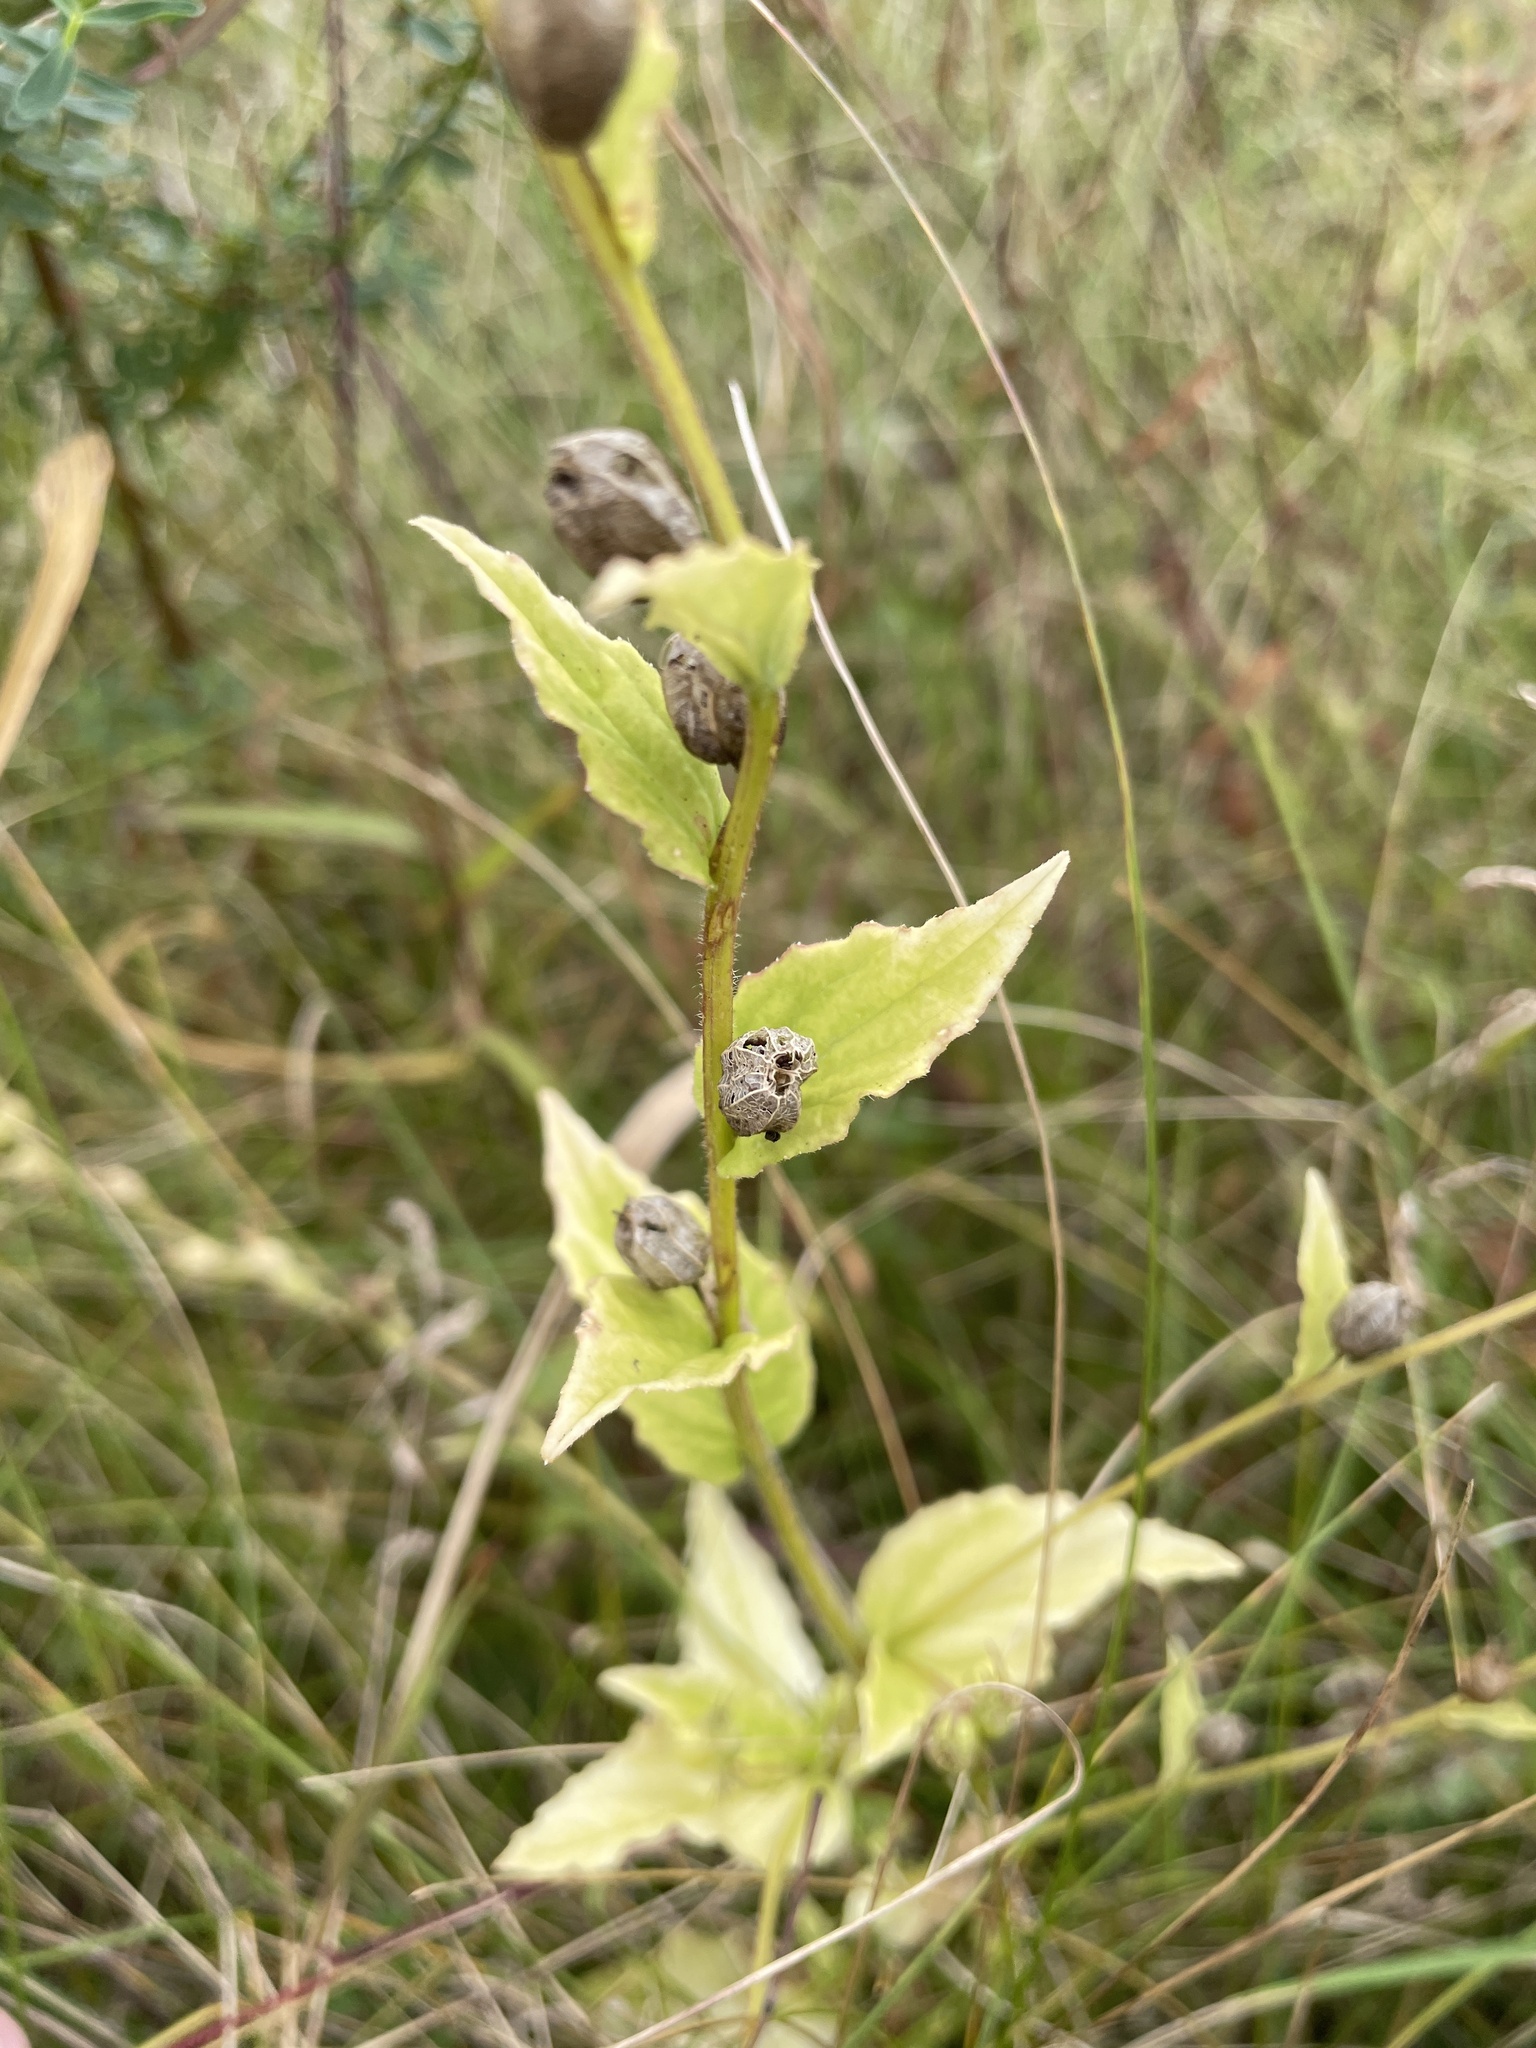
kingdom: Plantae
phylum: Tracheophyta
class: Magnoliopsida
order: Asterales
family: Campanulaceae
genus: Lobelia
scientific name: Lobelia inflata
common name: Indian tobacco
